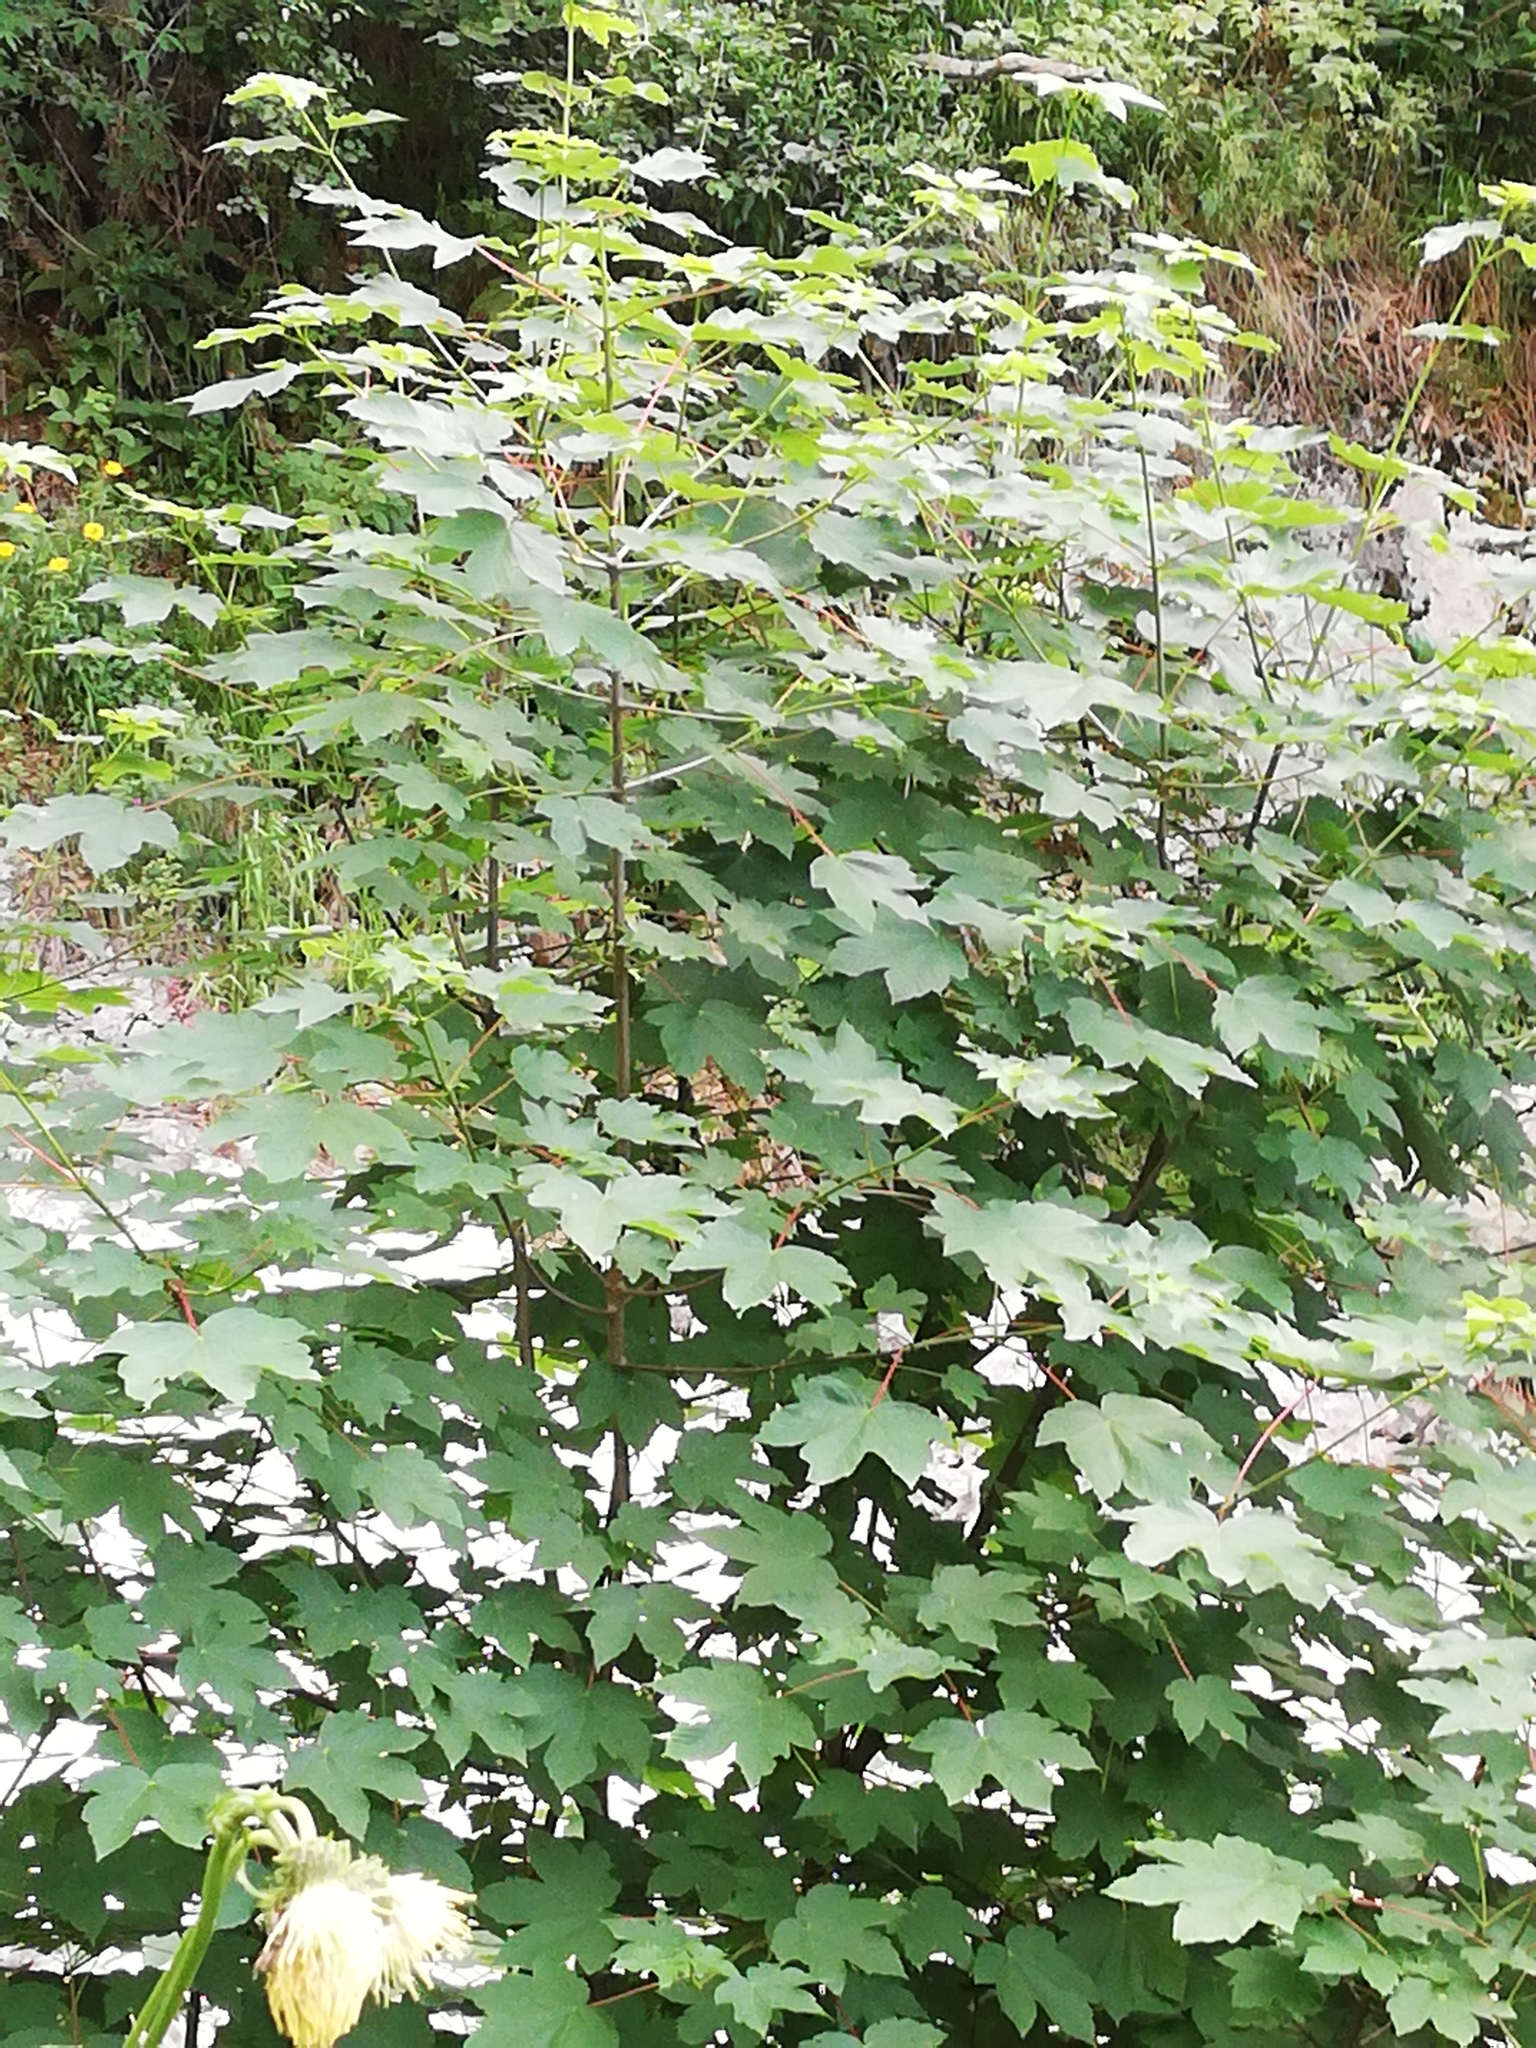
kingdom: Plantae
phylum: Tracheophyta
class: Magnoliopsida
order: Sapindales
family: Sapindaceae
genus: Acer
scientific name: Acer pseudoplatanus
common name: Sycamore
